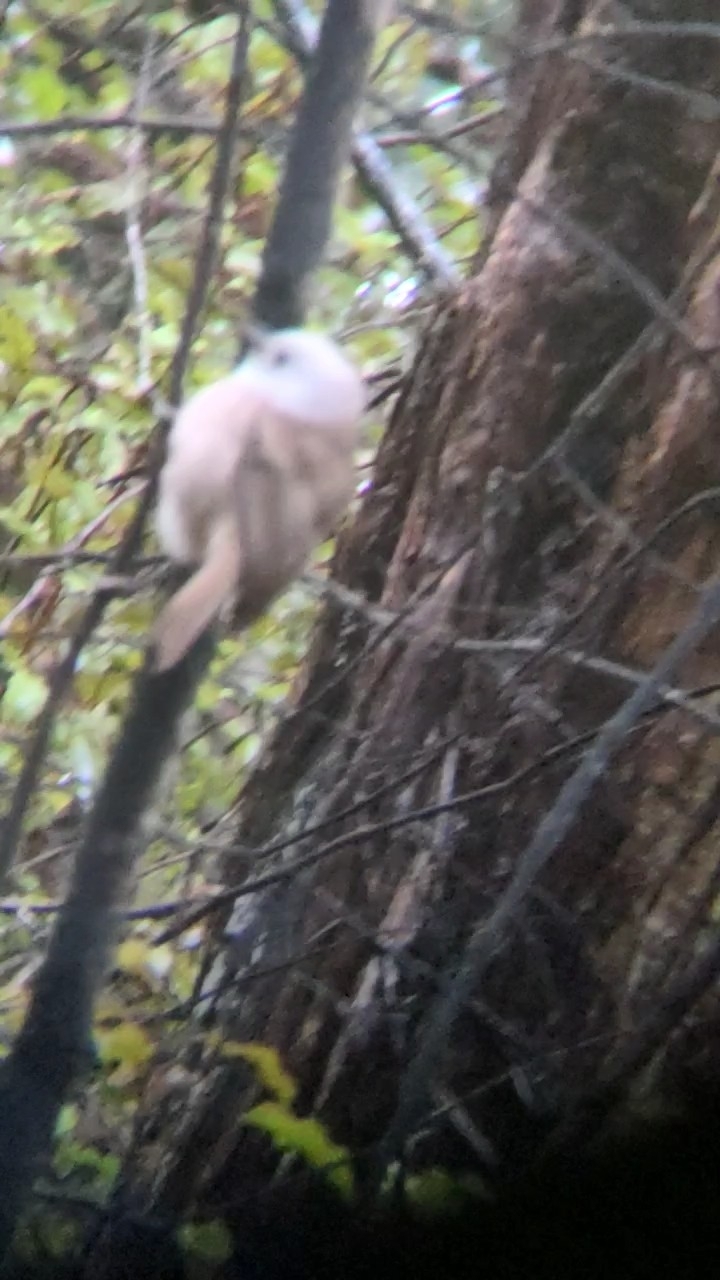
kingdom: Animalia
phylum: Chordata
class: Aves
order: Passeriformes
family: Acanthizidae
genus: Mohoua
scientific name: Mohoua albicilla
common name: Whitehead
